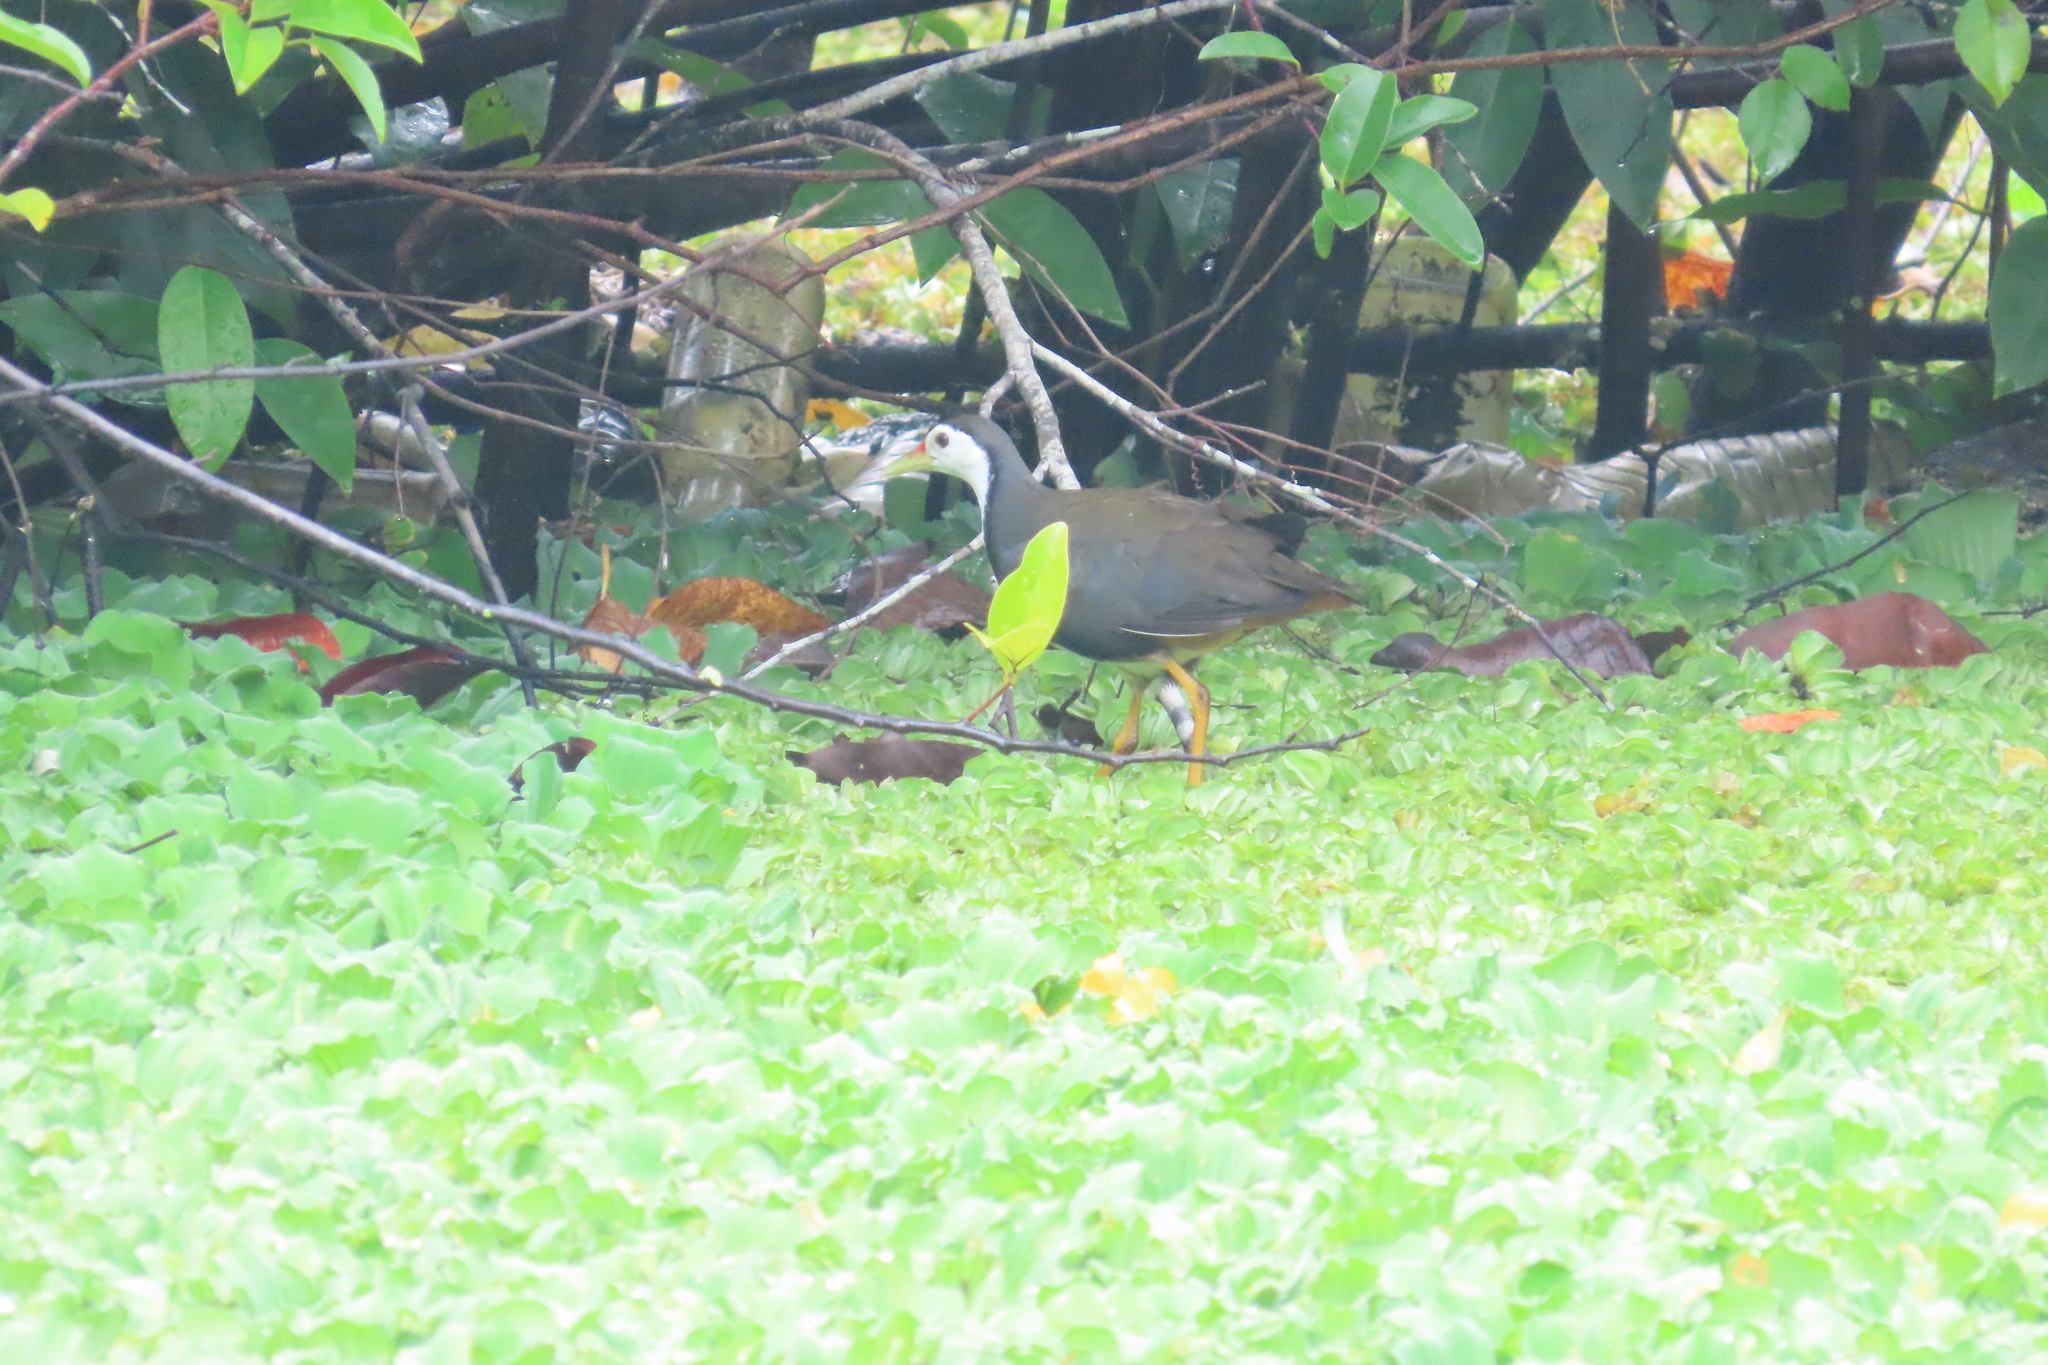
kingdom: Animalia
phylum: Chordata
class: Aves
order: Gruiformes
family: Rallidae
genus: Amaurornis
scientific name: Amaurornis phoenicurus
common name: White-breasted waterhen
